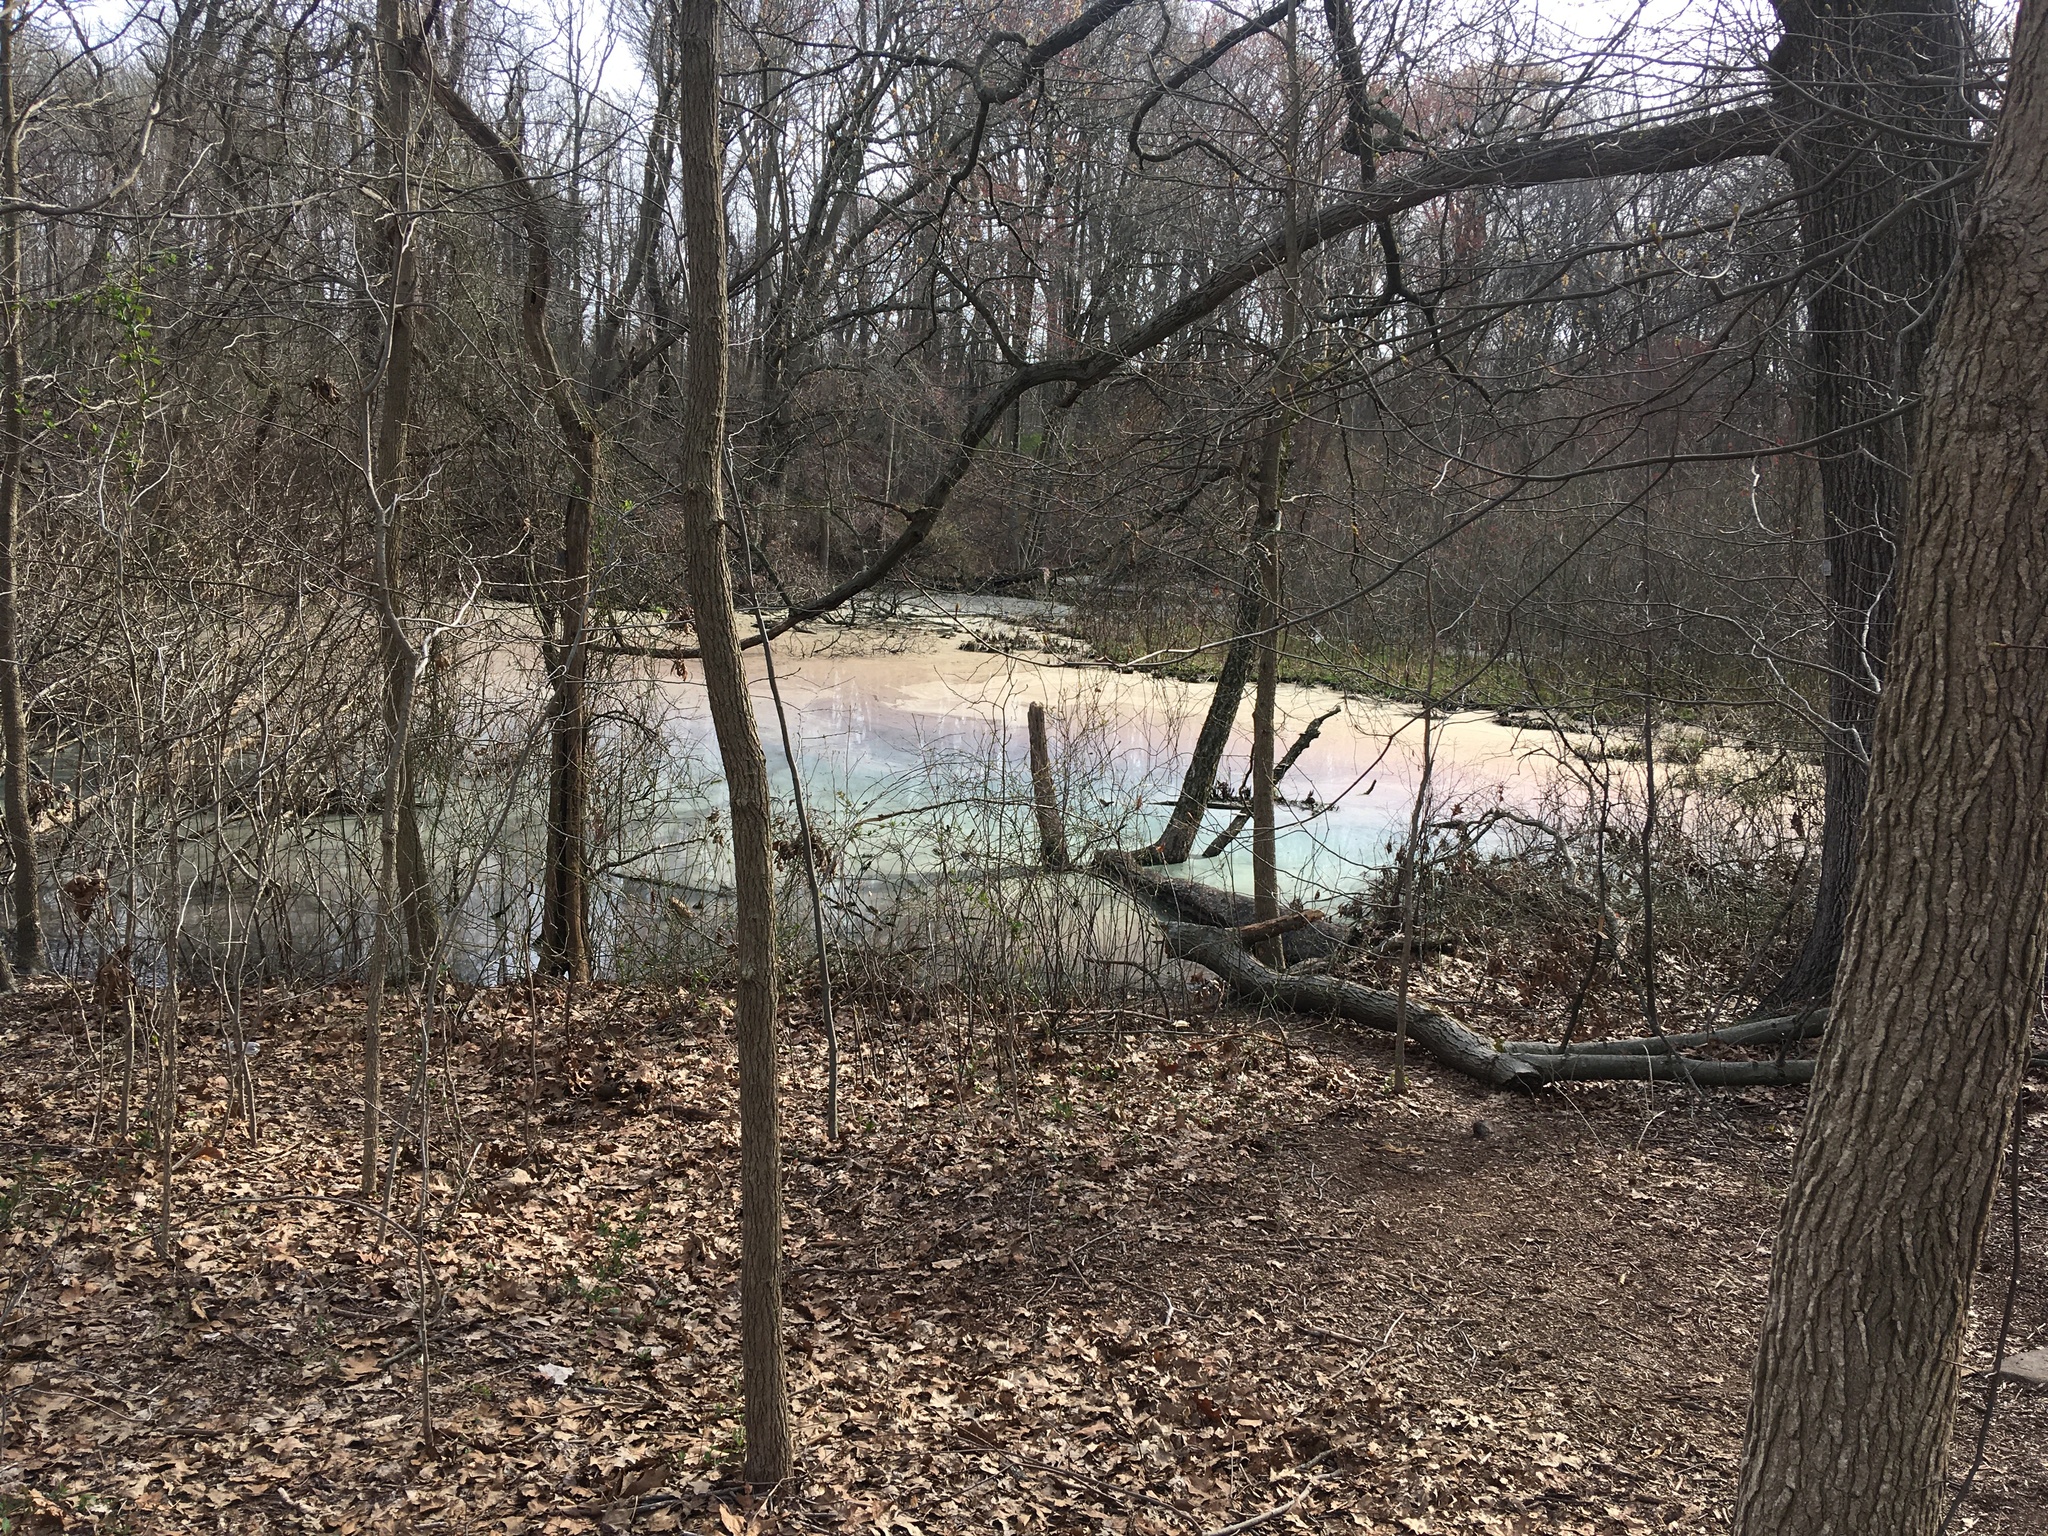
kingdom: Animalia
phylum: Chordata
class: Amphibia
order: Anura
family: Hylidae
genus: Pseudacris
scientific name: Pseudacris crucifer
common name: Spring peeper
